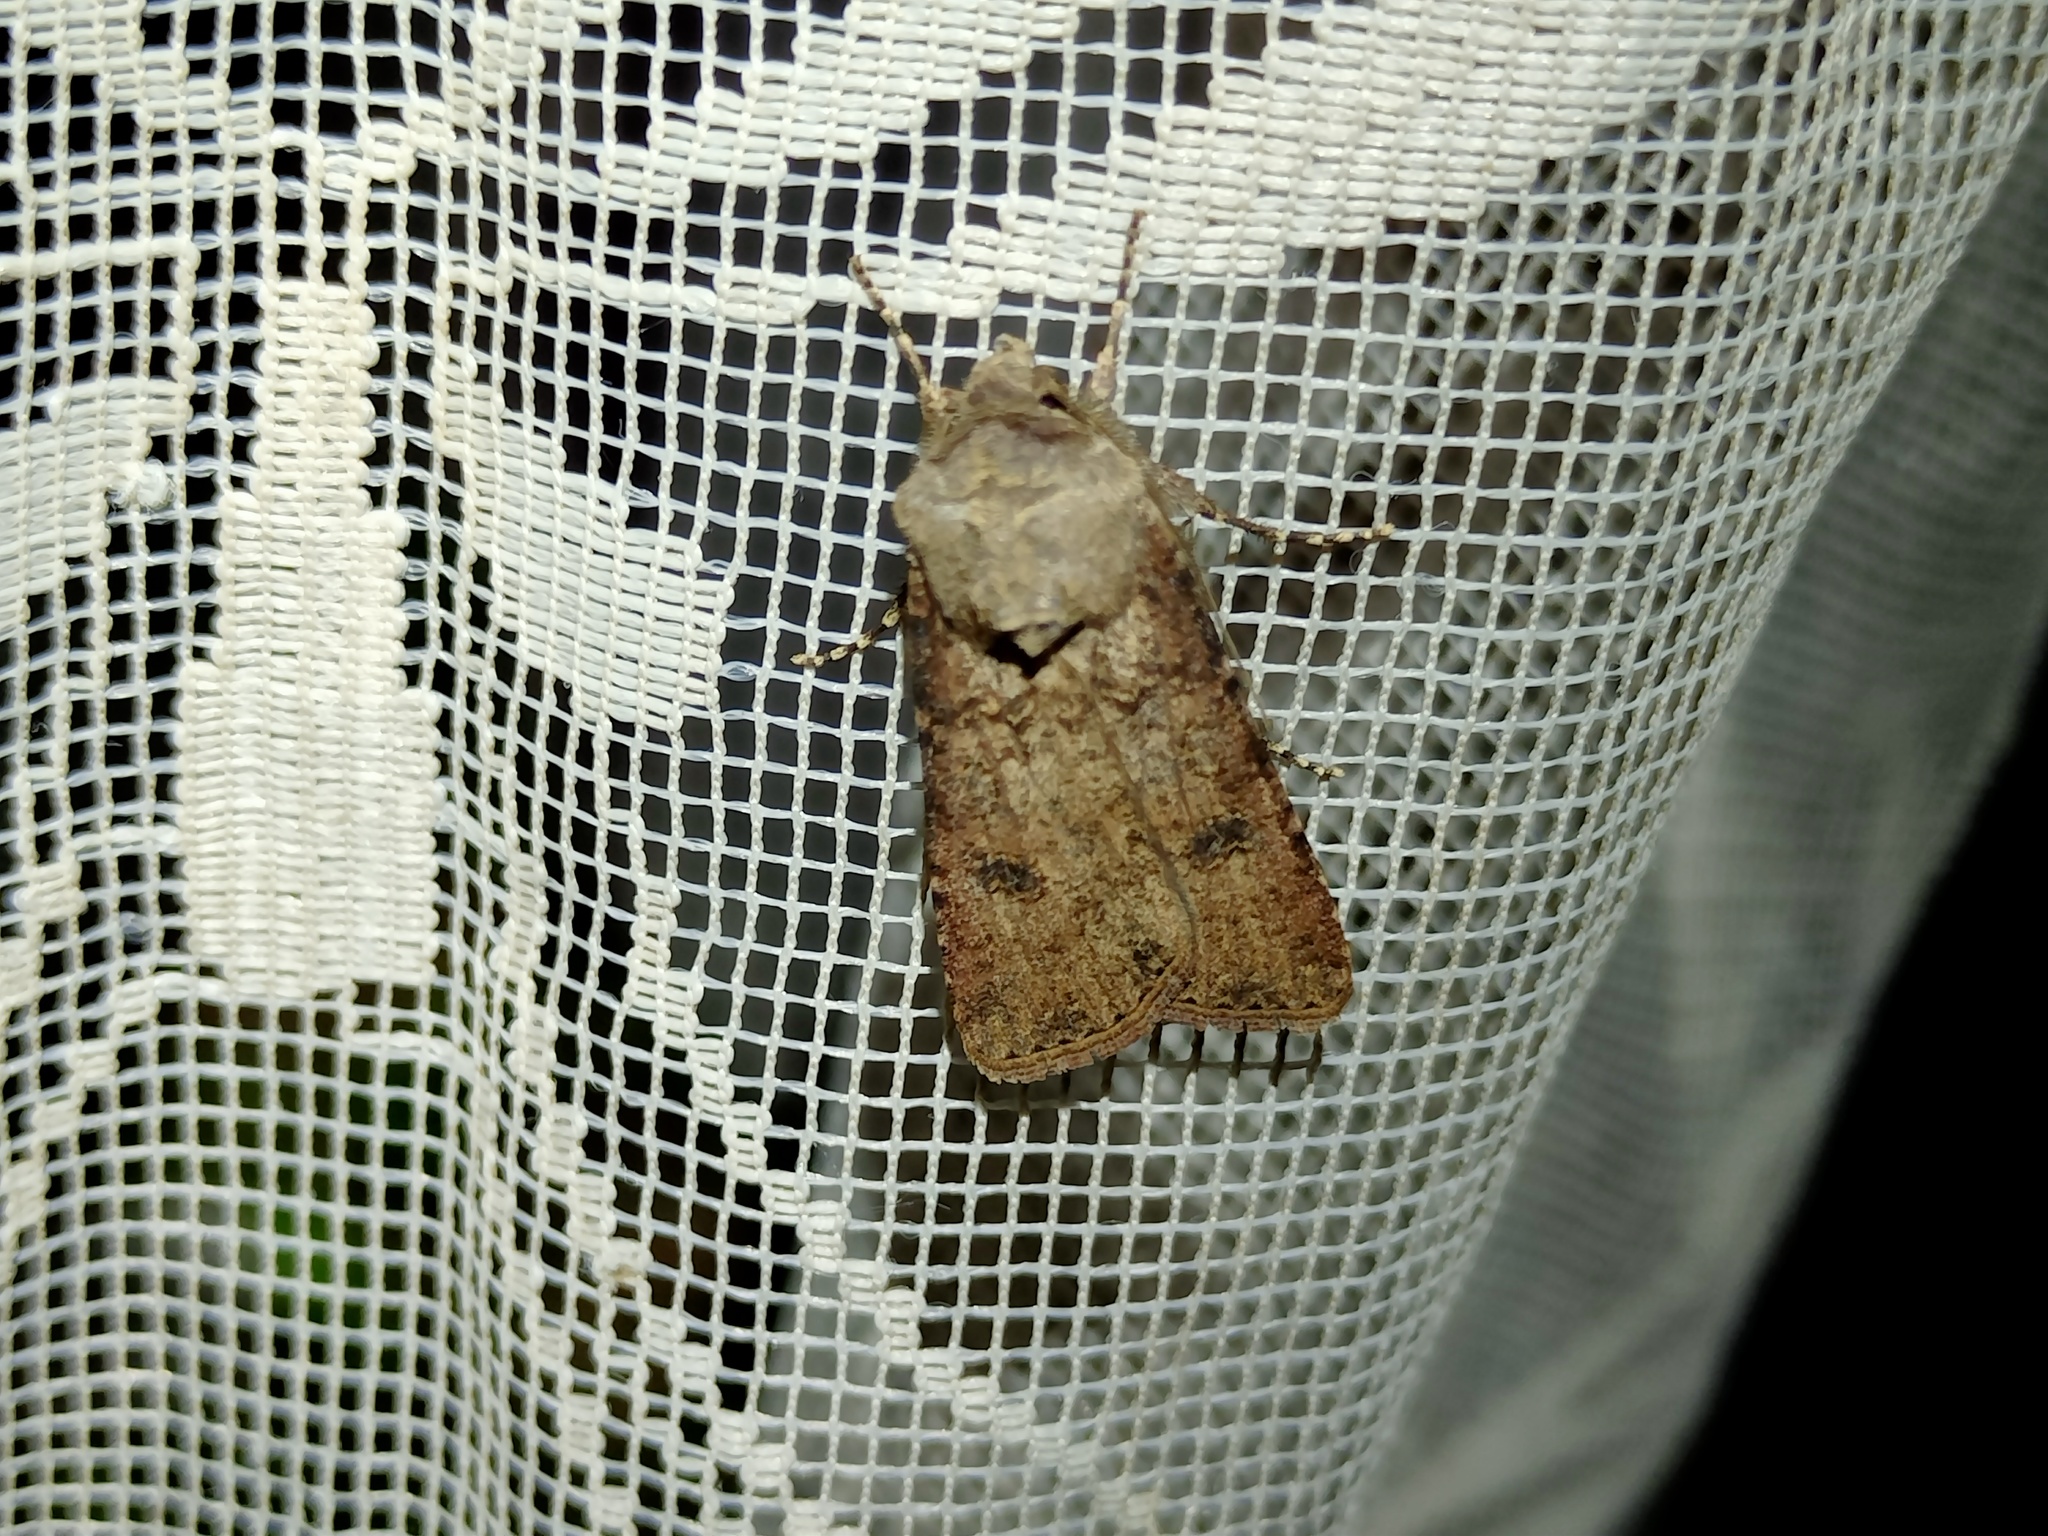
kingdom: Animalia
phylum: Arthropoda
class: Insecta
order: Lepidoptera
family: Noctuidae
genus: Agrotis
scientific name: Agrotis segetum
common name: Turnip moth
